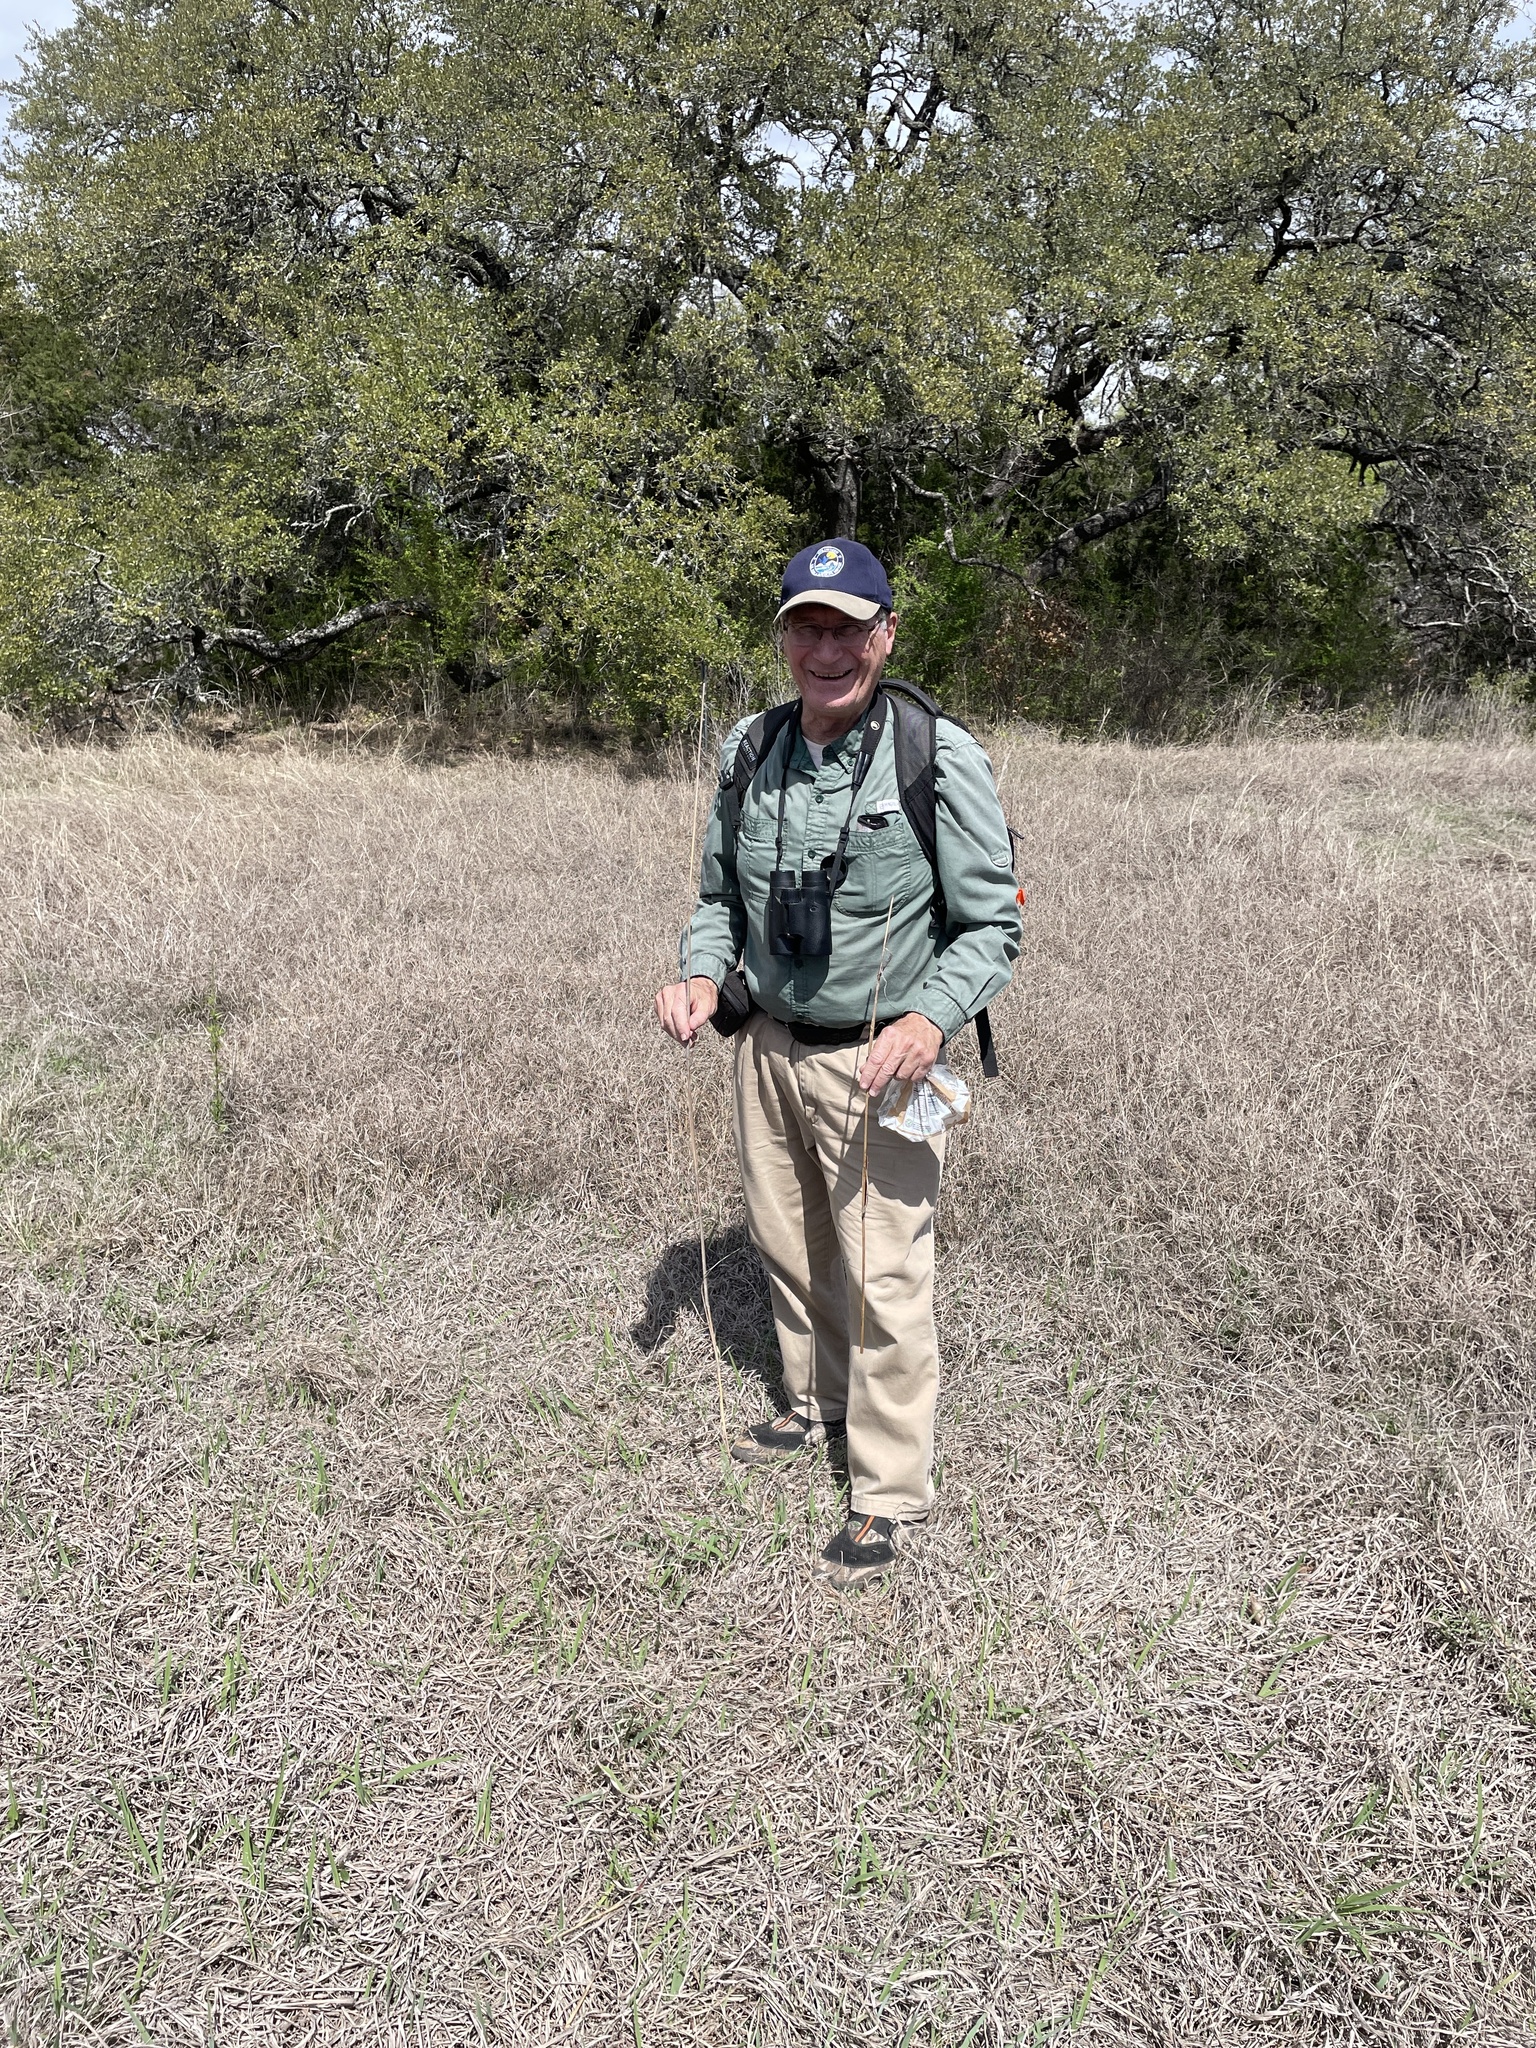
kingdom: Plantae
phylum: Tracheophyta
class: Liliopsida
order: Poales
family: Poaceae
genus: Andropogon
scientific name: Andropogon gerardi
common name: Big bluestem
